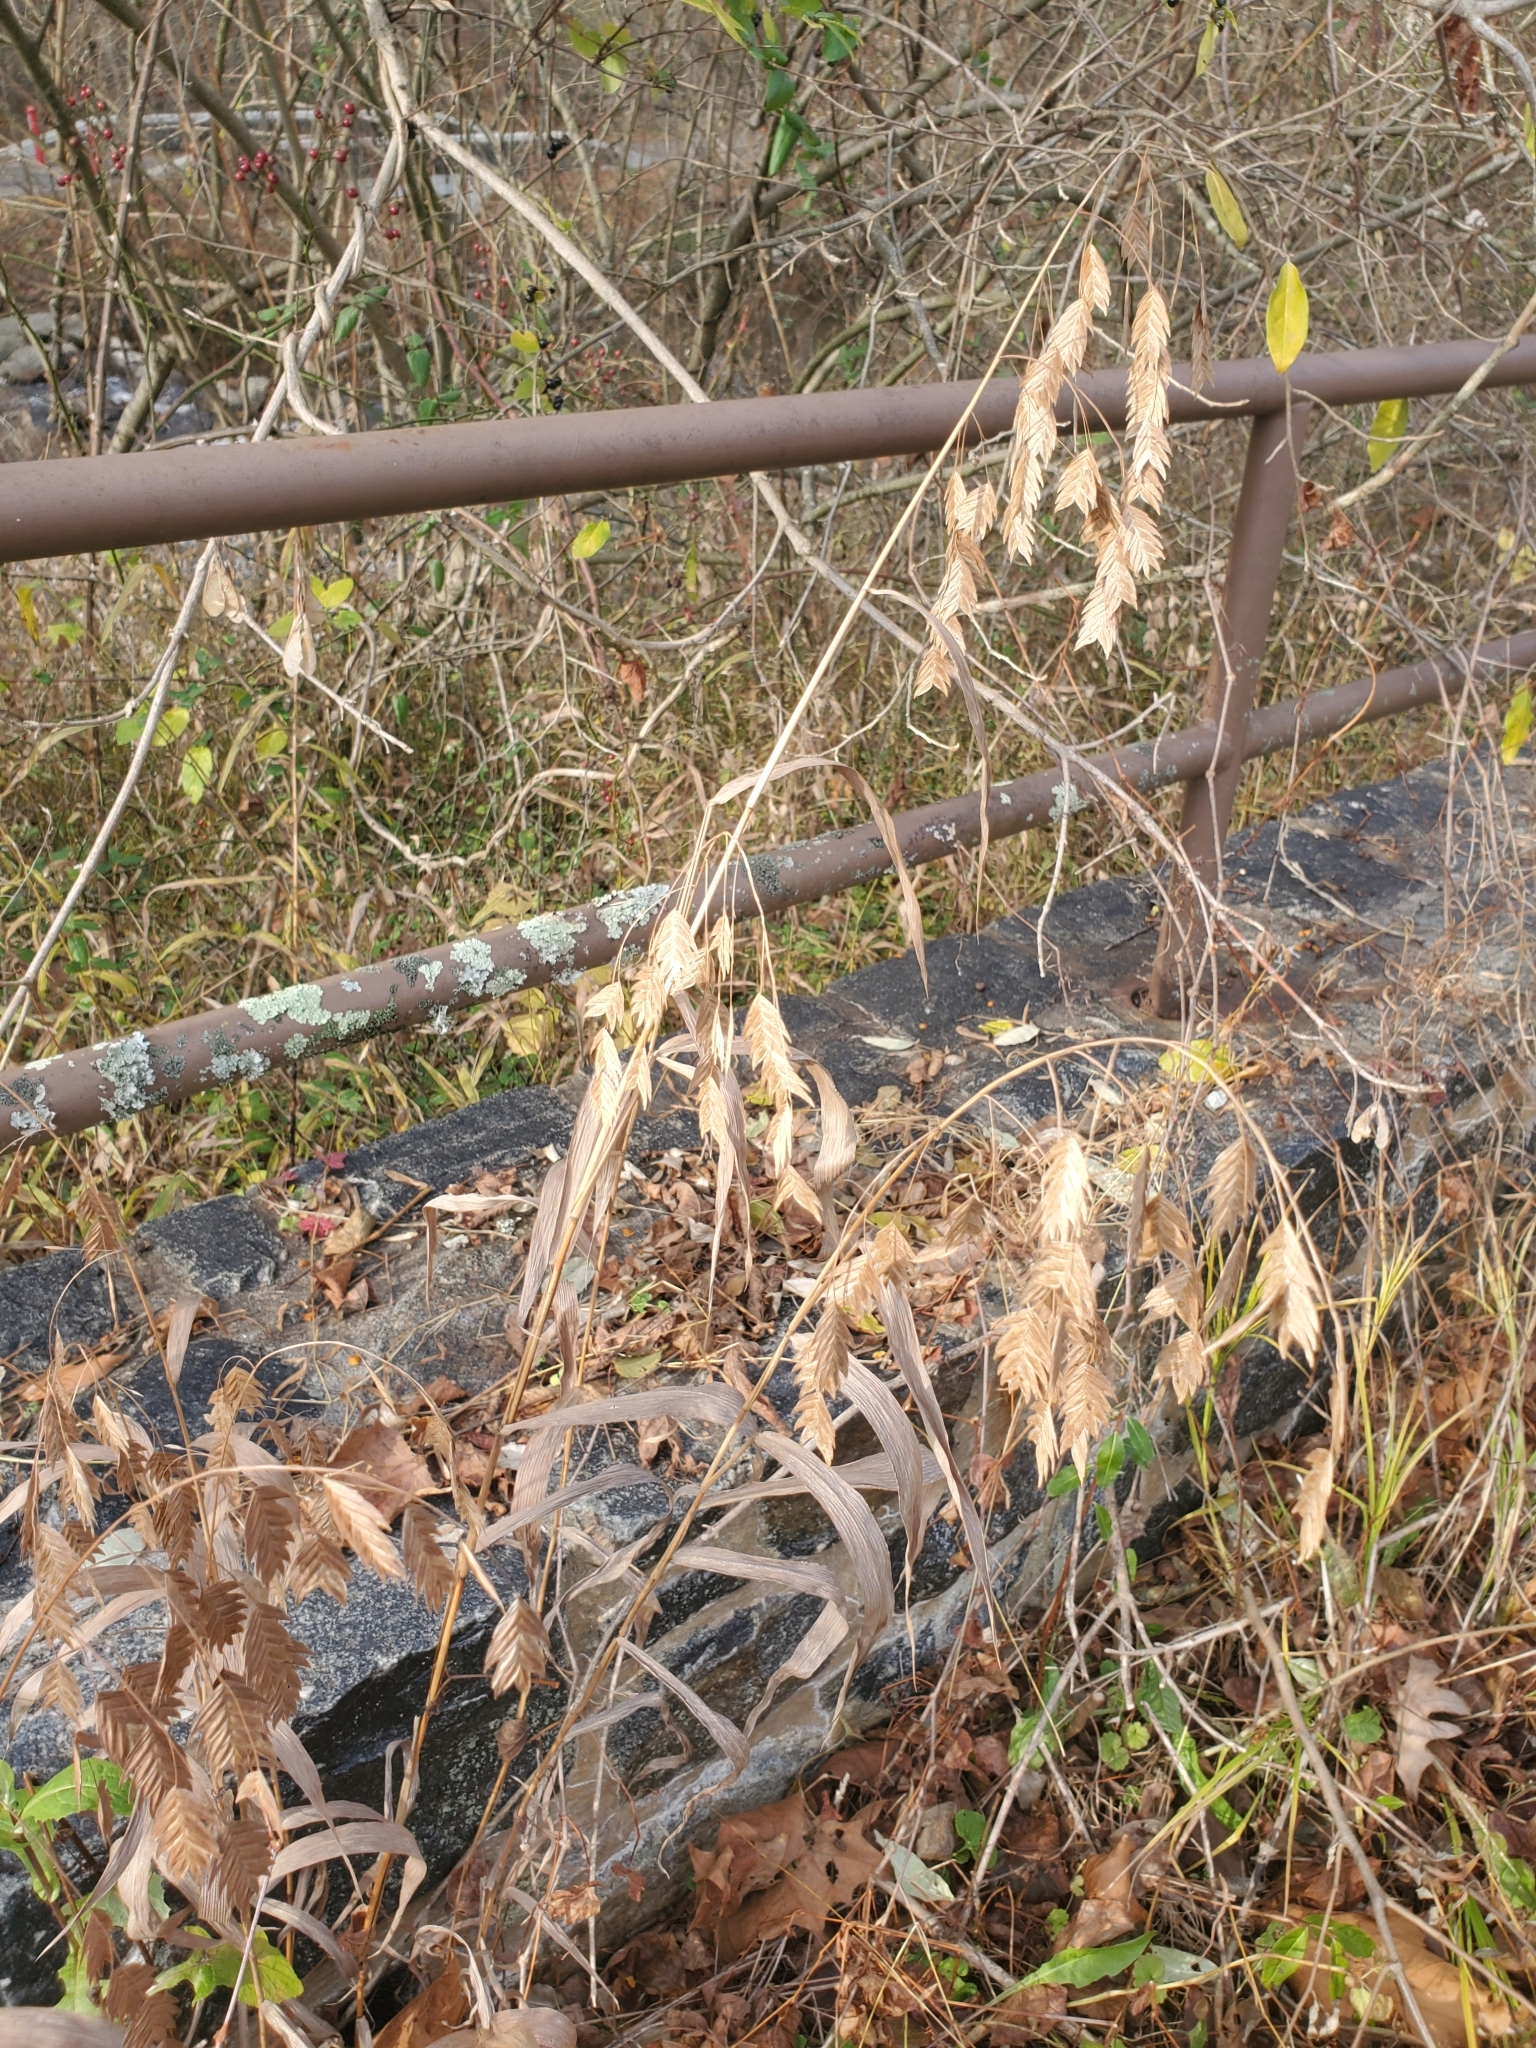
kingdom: Plantae
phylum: Tracheophyta
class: Liliopsida
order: Poales
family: Poaceae
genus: Chasmanthium
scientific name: Chasmanthium latifolium
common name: Broad-leaved chasmanthium
